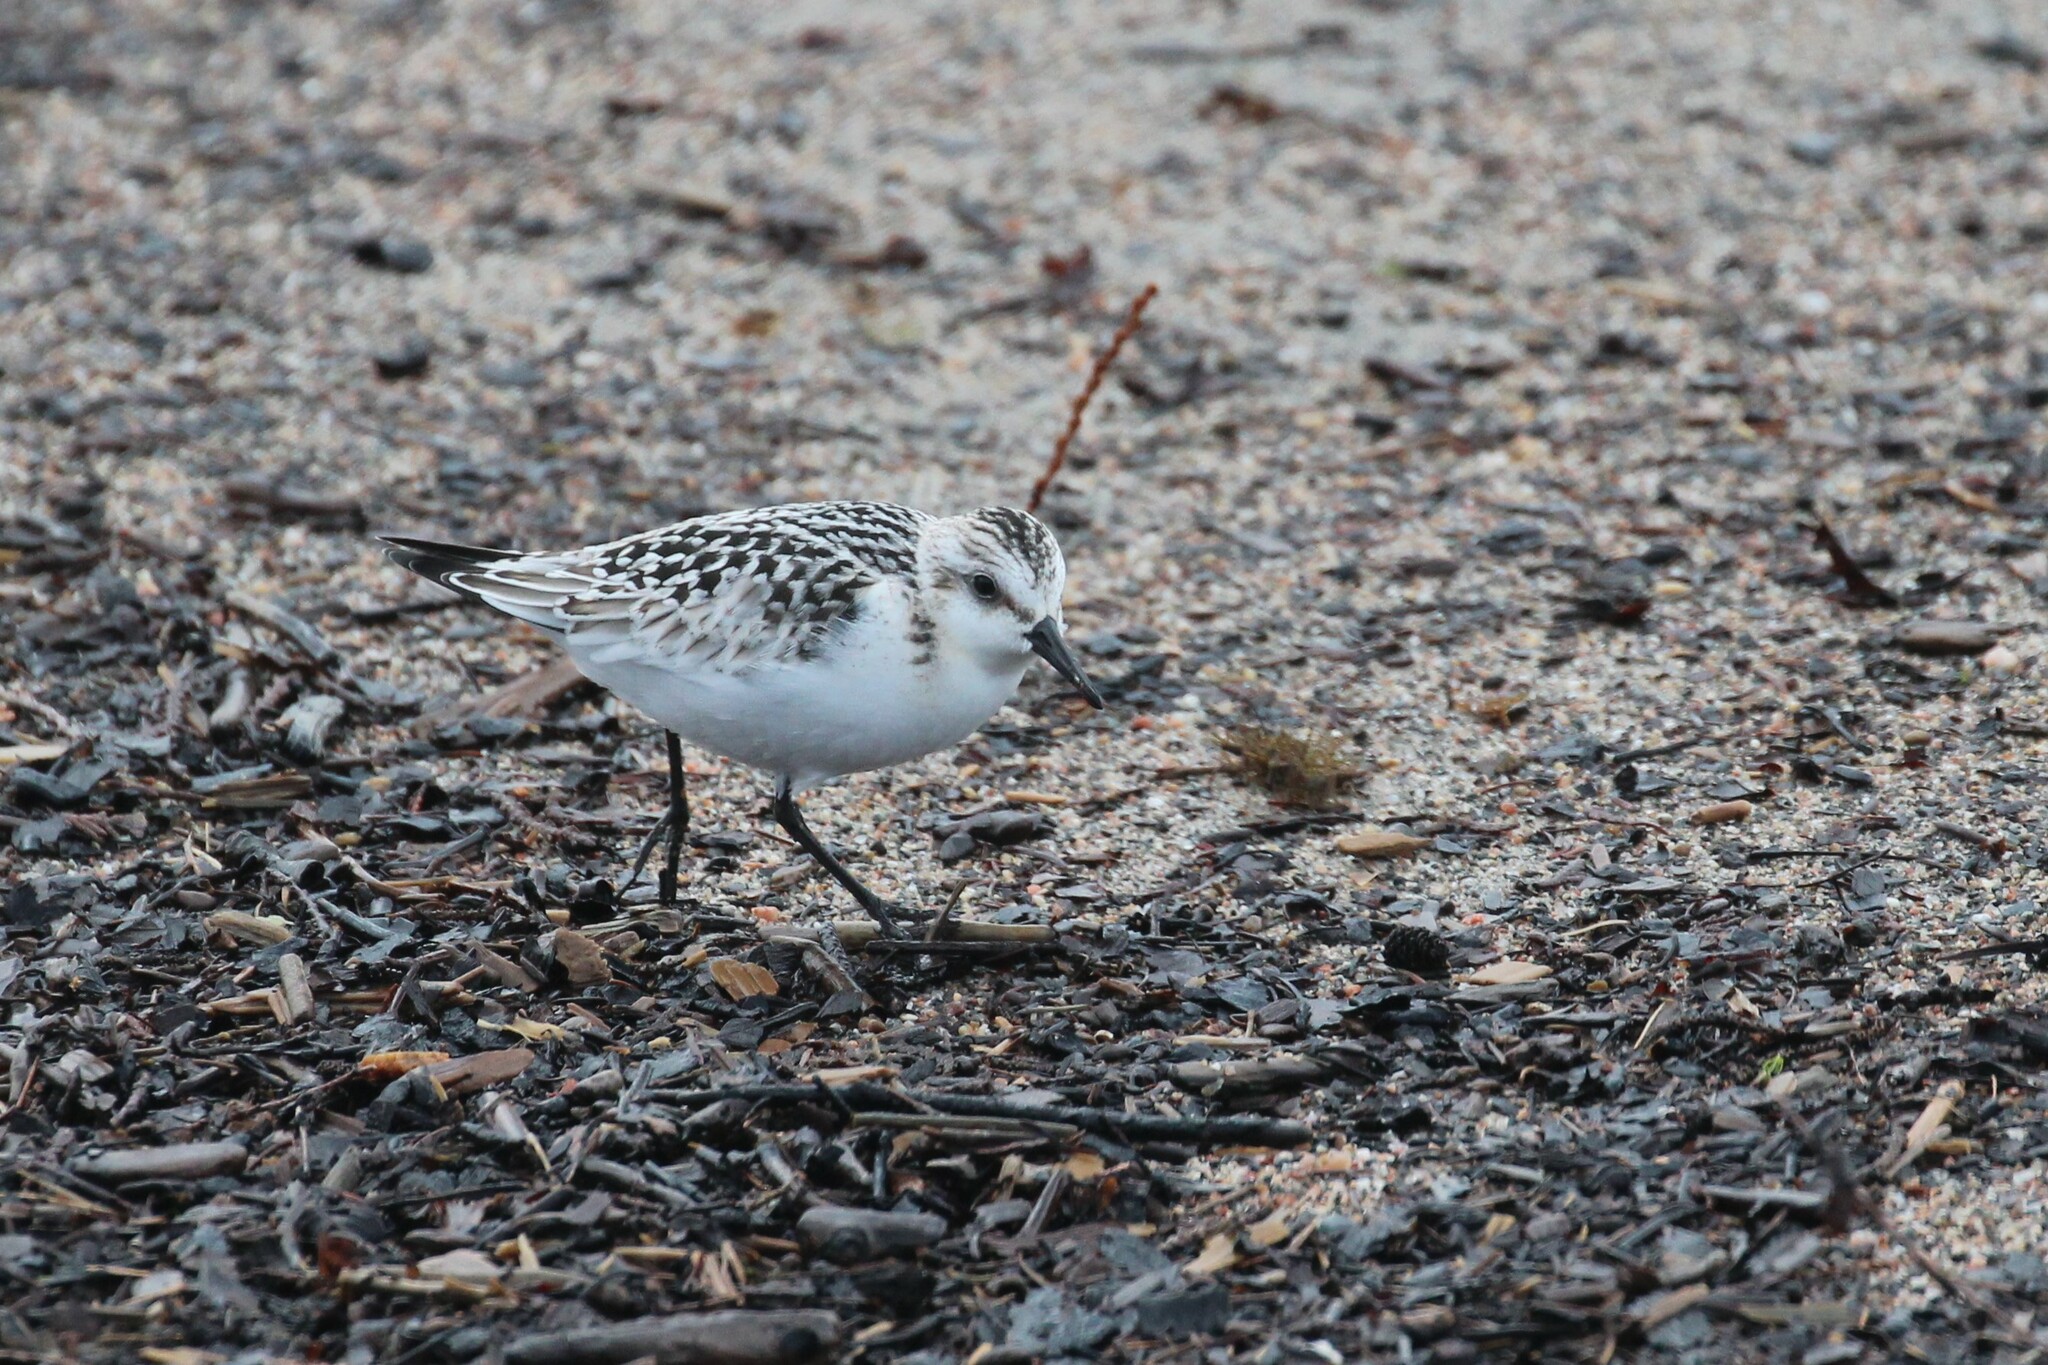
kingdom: Animalia
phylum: Chordata
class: Aves
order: Charadriiformes
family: Scolopacidae
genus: Calidris
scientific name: Calidris alba
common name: Sanderling
